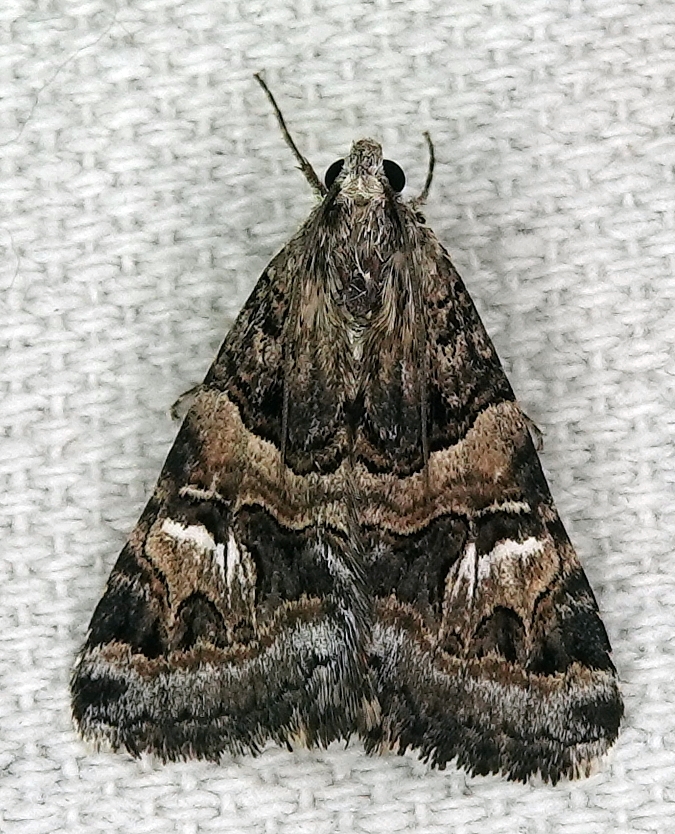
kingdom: Animalia
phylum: Arthropoda
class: Insecta
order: Lepidoptera
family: Erebidae
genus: Drasteria
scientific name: Drasteria mirifica
